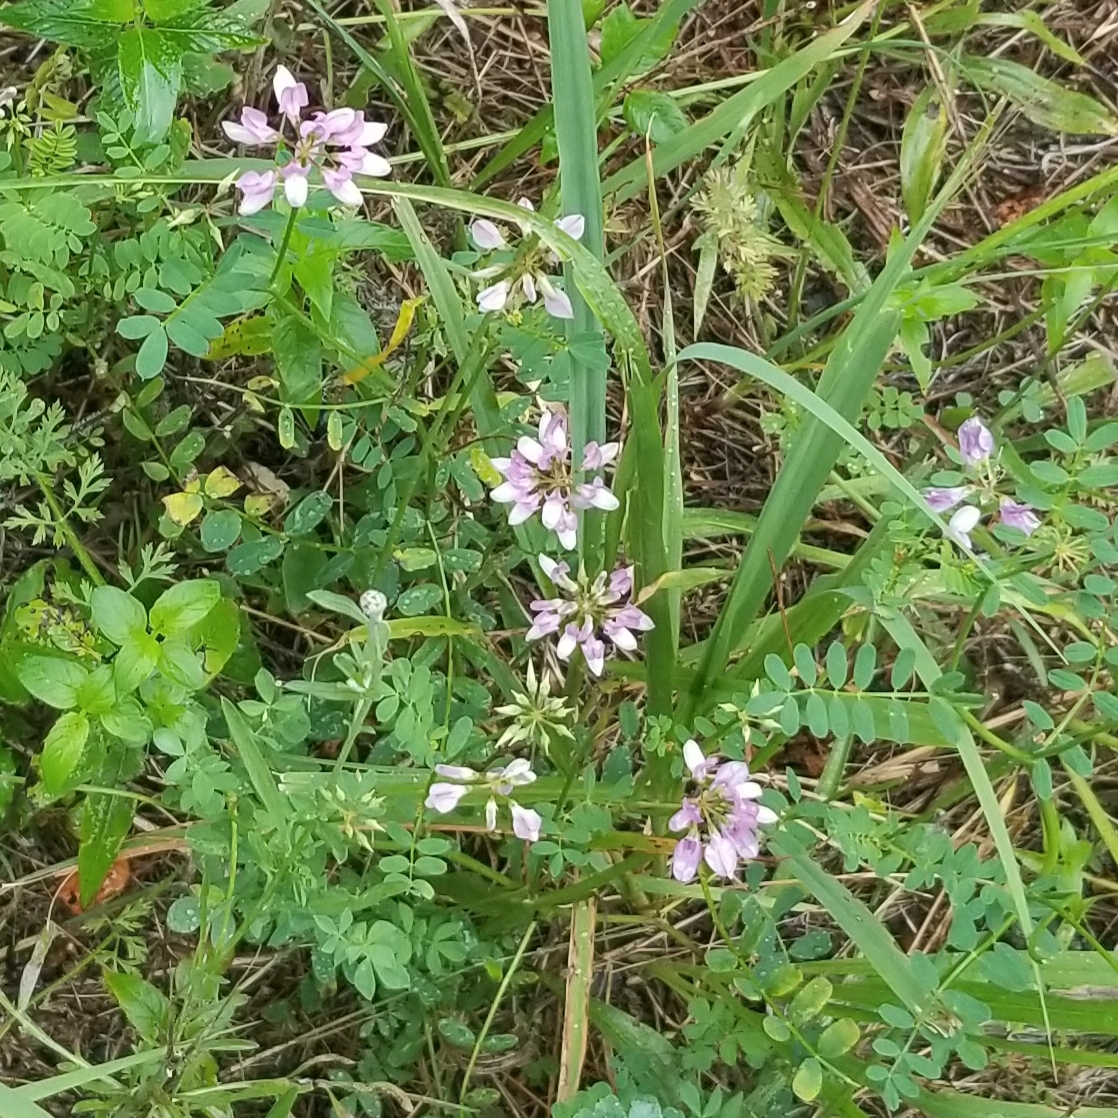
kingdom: Plantae
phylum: Tracheophyta
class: Magnoliopsida
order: Fabales
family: Fabaceae
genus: Coronilla
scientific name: Coronilla varia
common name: Crownvetch
